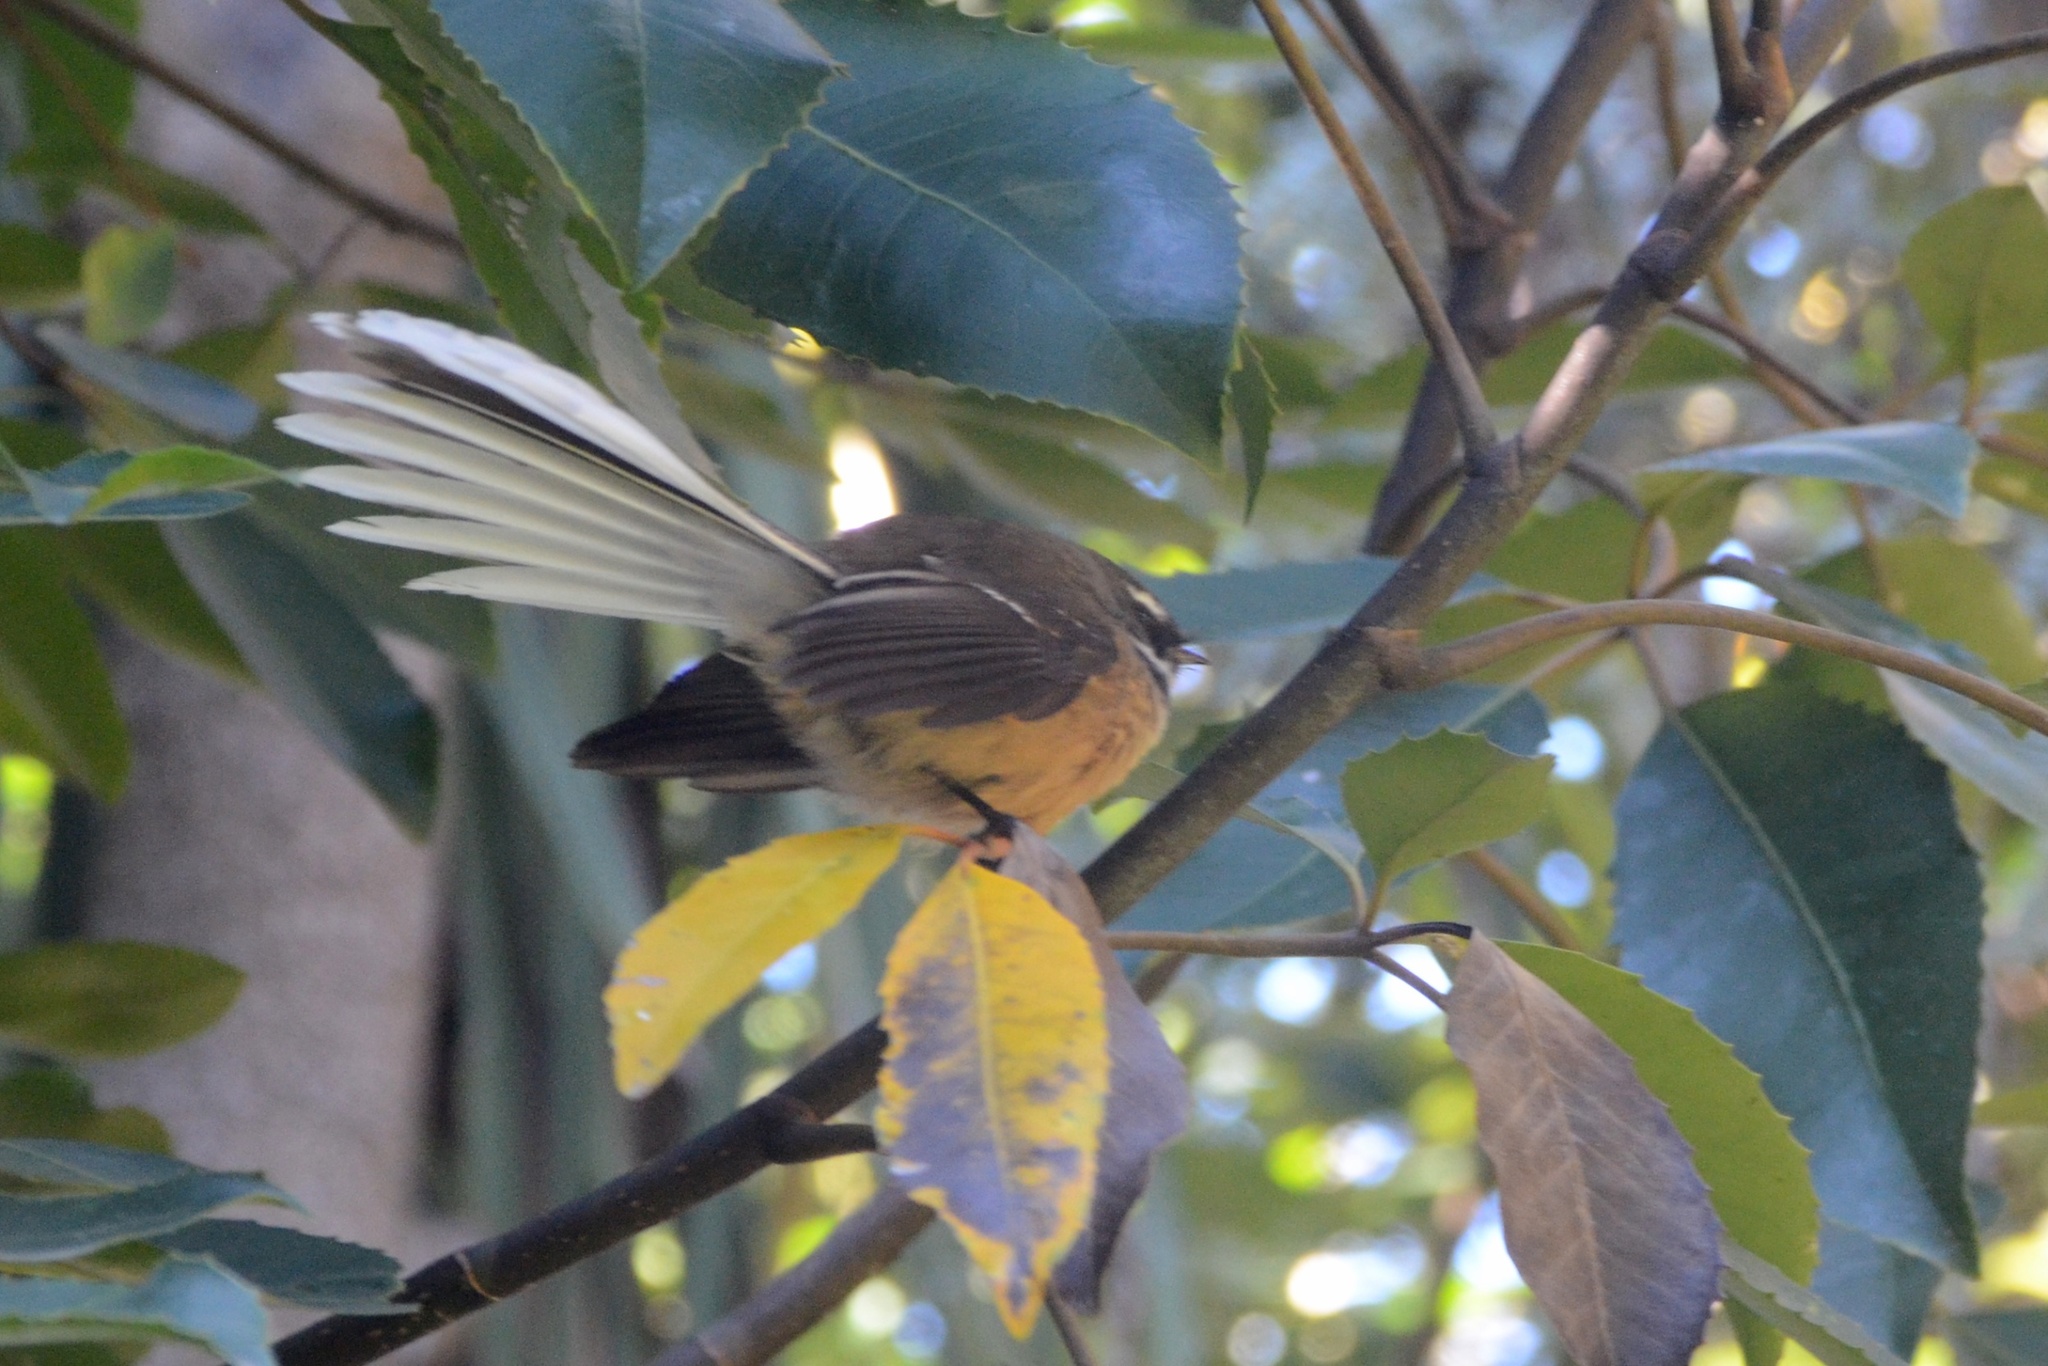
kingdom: Animalia
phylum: Chordata
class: Aves
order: Passeriformes
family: Rhipiduridae
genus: Rhipidura
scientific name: Rhipidura fuliginosa
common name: New zealand fantail
